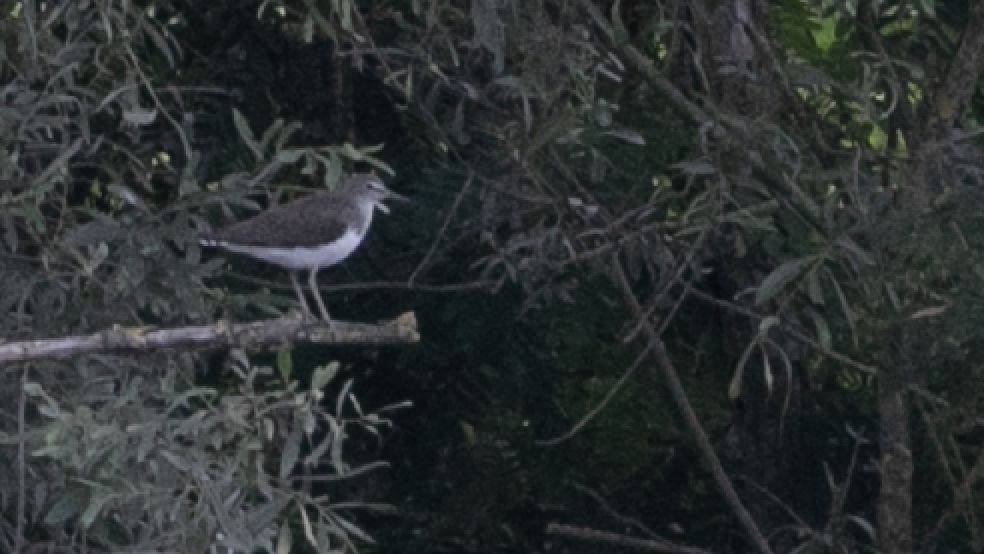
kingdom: Animalia
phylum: Chordata
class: Aves
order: Charadriiformes
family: Scolopacidae
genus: Tringa
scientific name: Tringa ochropus
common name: Green sandpiper
